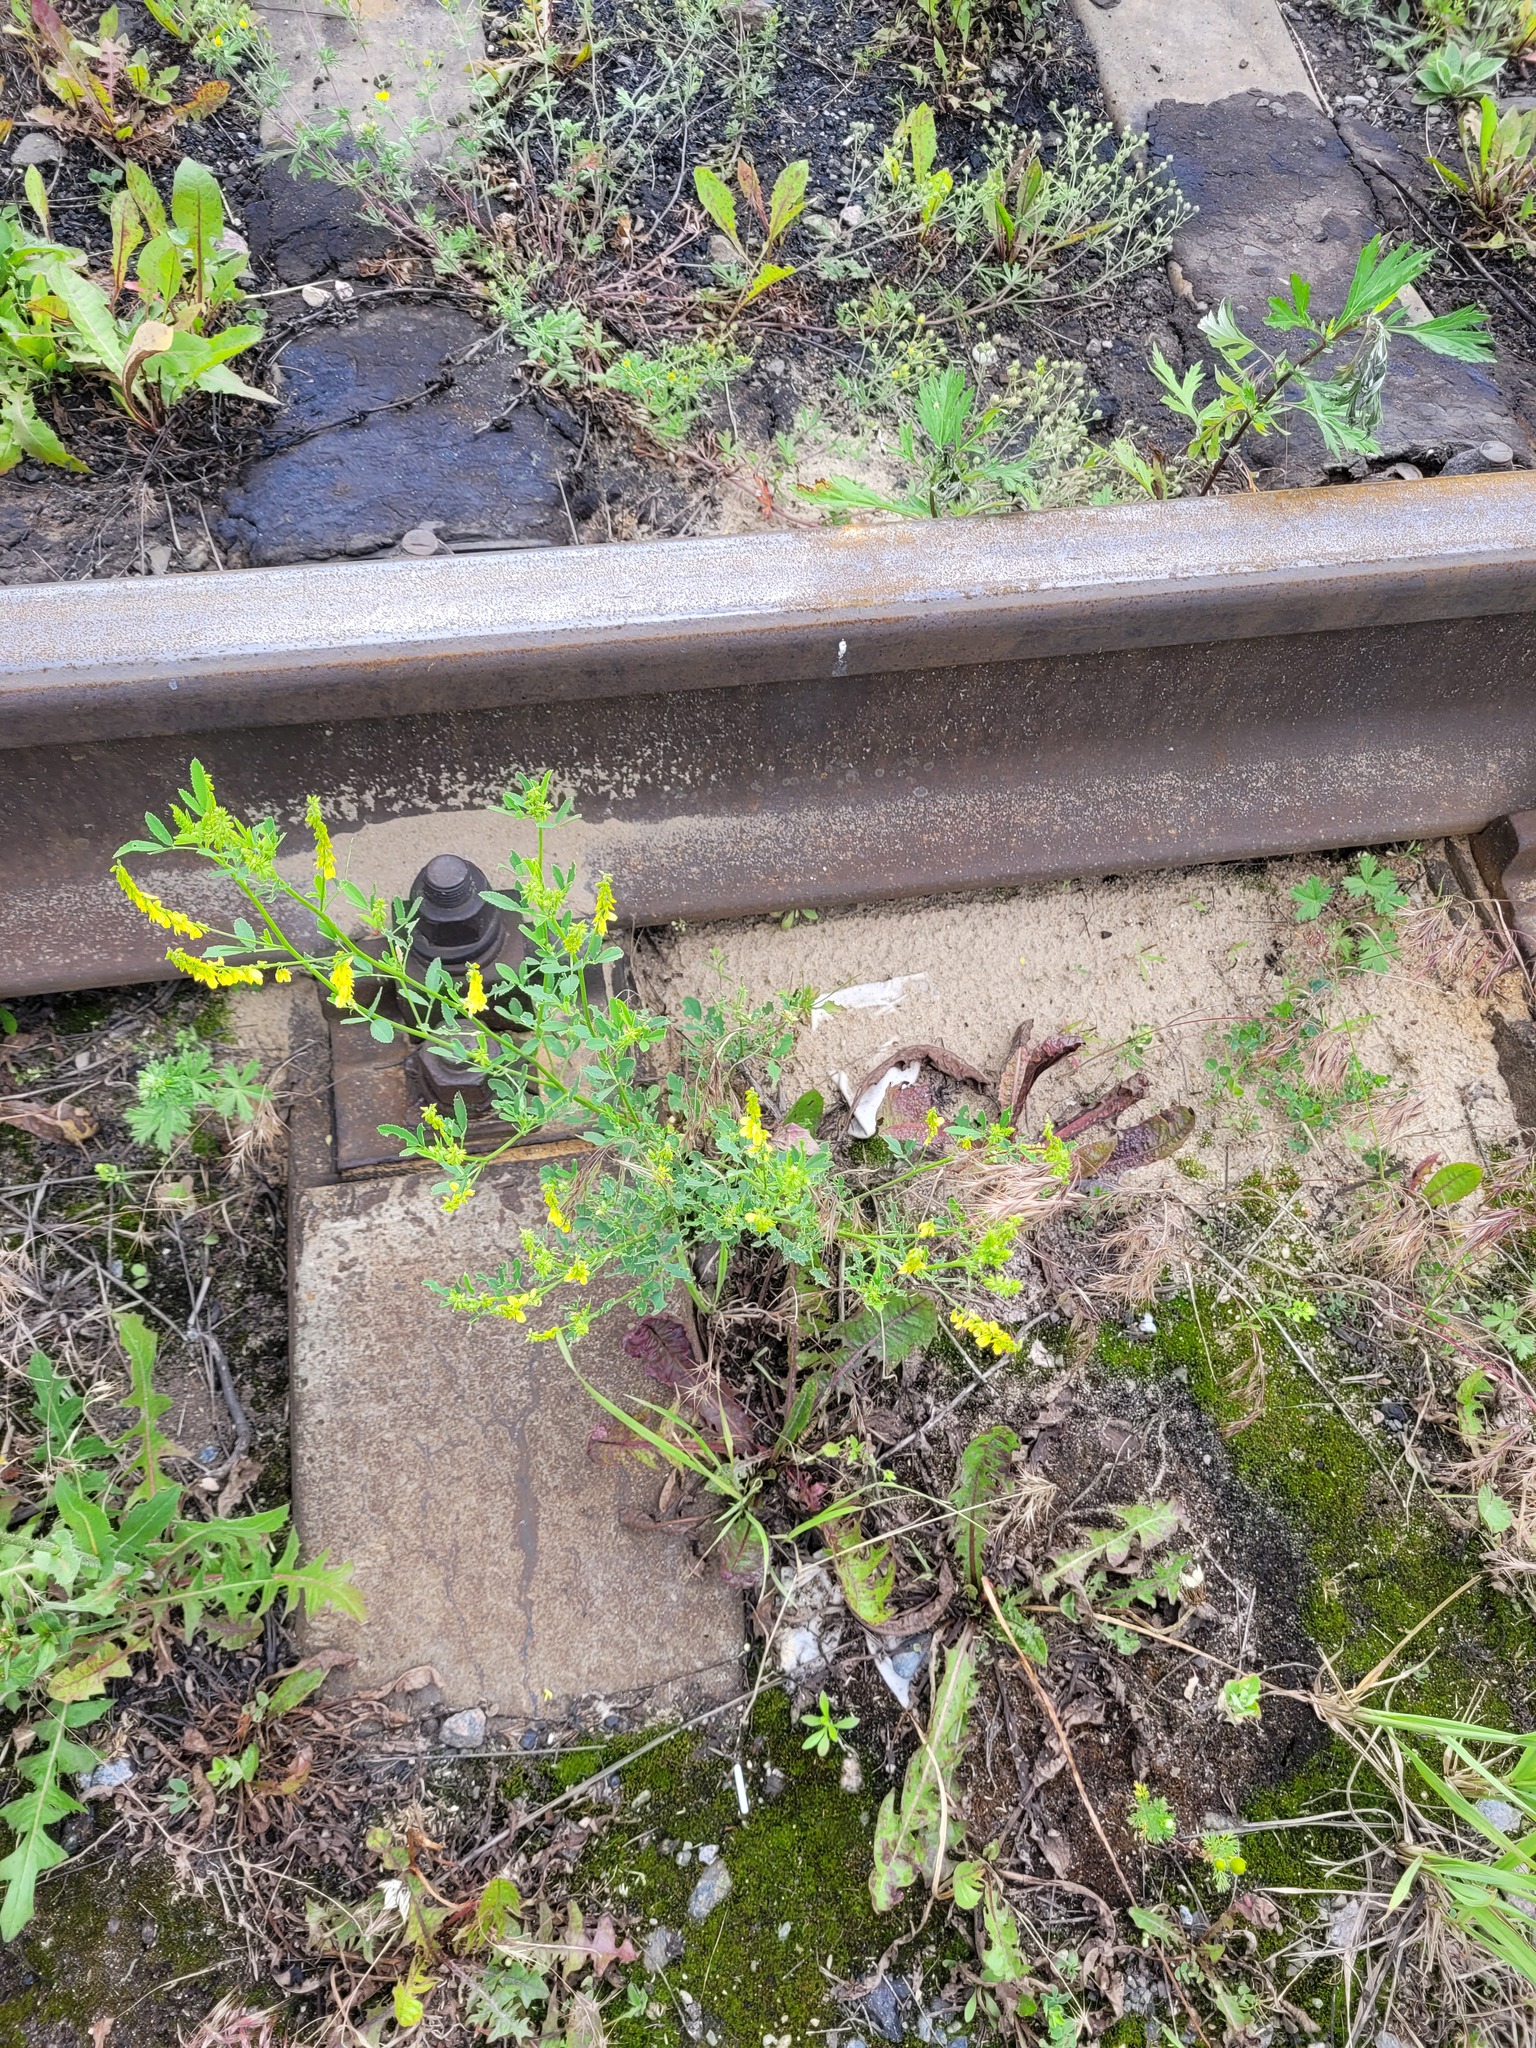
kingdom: Plantae
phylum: Tracheophyta
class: Magnoliopsida
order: Fabales
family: Fabaceae
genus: Melilotus
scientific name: Melilotus officinalis
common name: Sweetclover
